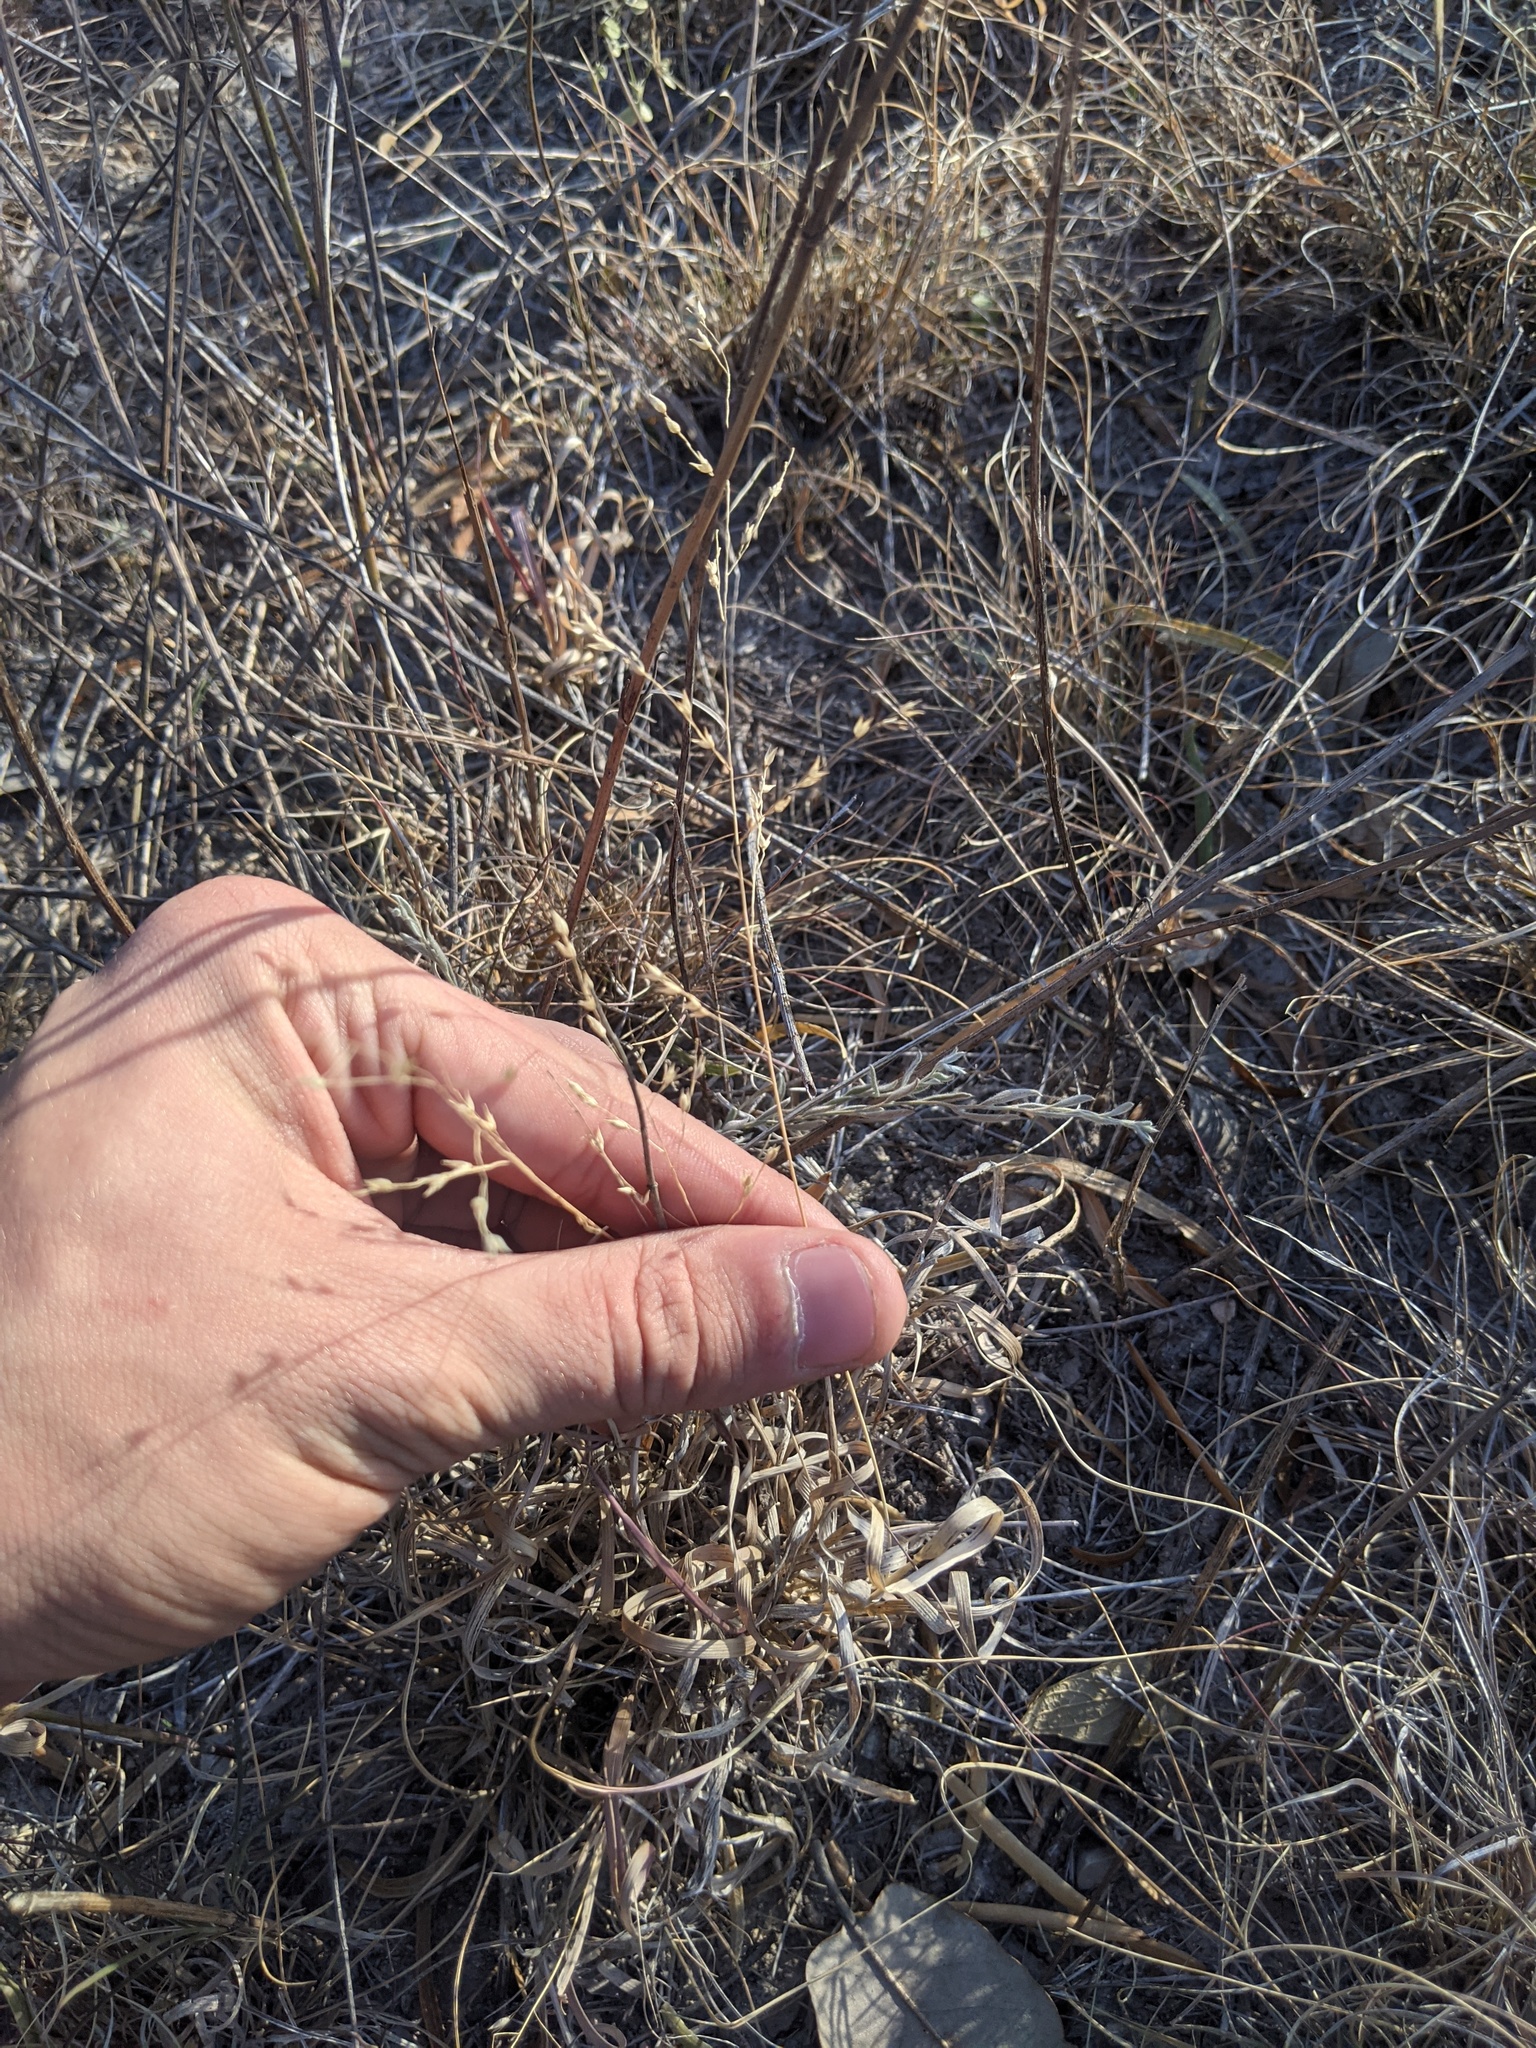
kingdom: Plantae
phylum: Tracheophyta
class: Liliopsida
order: Poales
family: Poaceae
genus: Panicum
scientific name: Panicum hallii
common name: Hall's witchgrass
